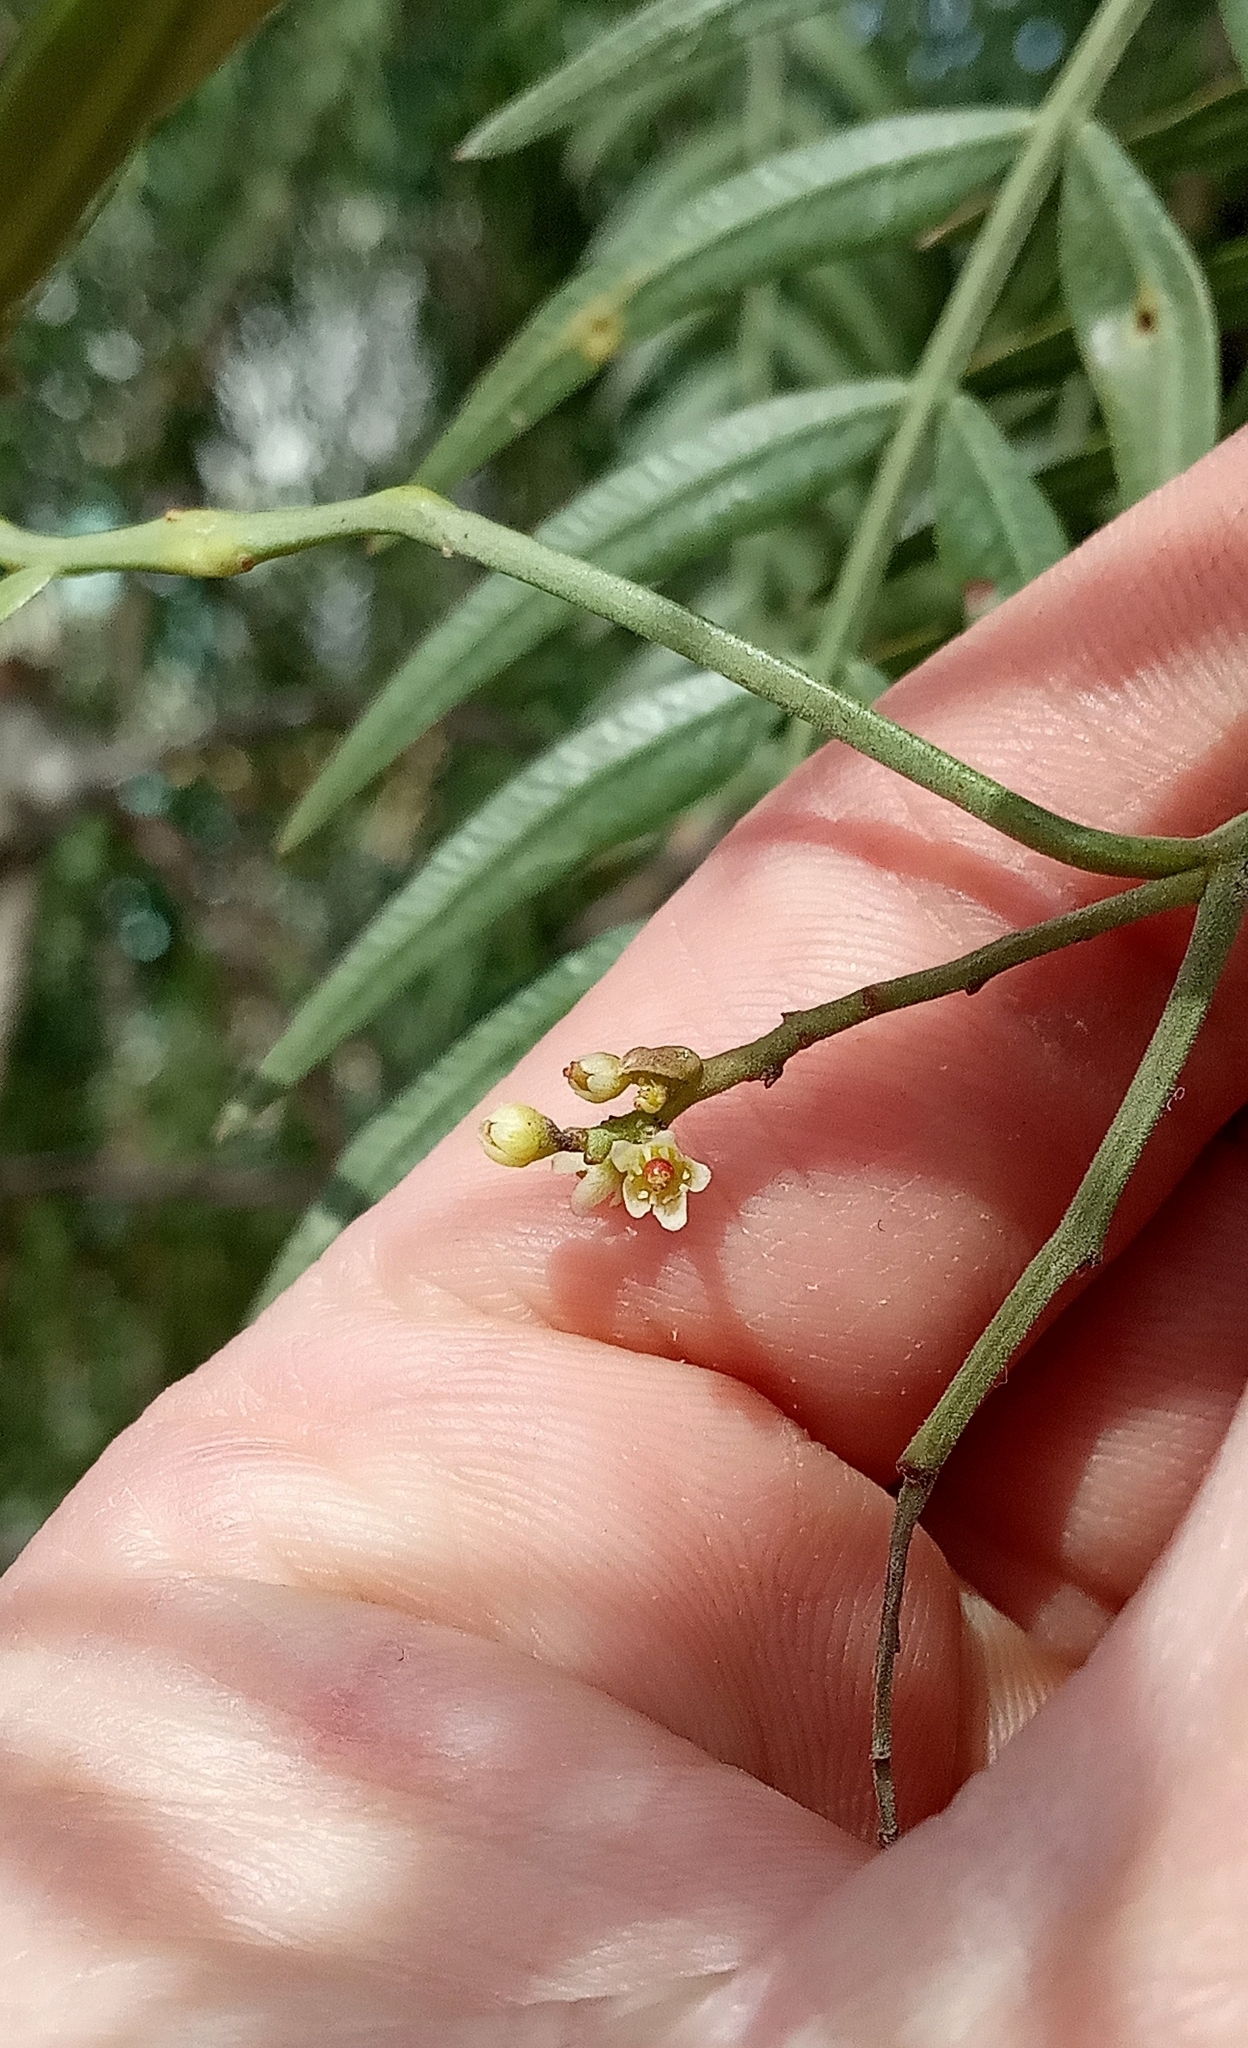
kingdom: Plantae
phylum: Tracheophyta
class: Magnoliopsida
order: Sapindales
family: Anacardiaceae
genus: Schinus
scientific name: Schinus areira
